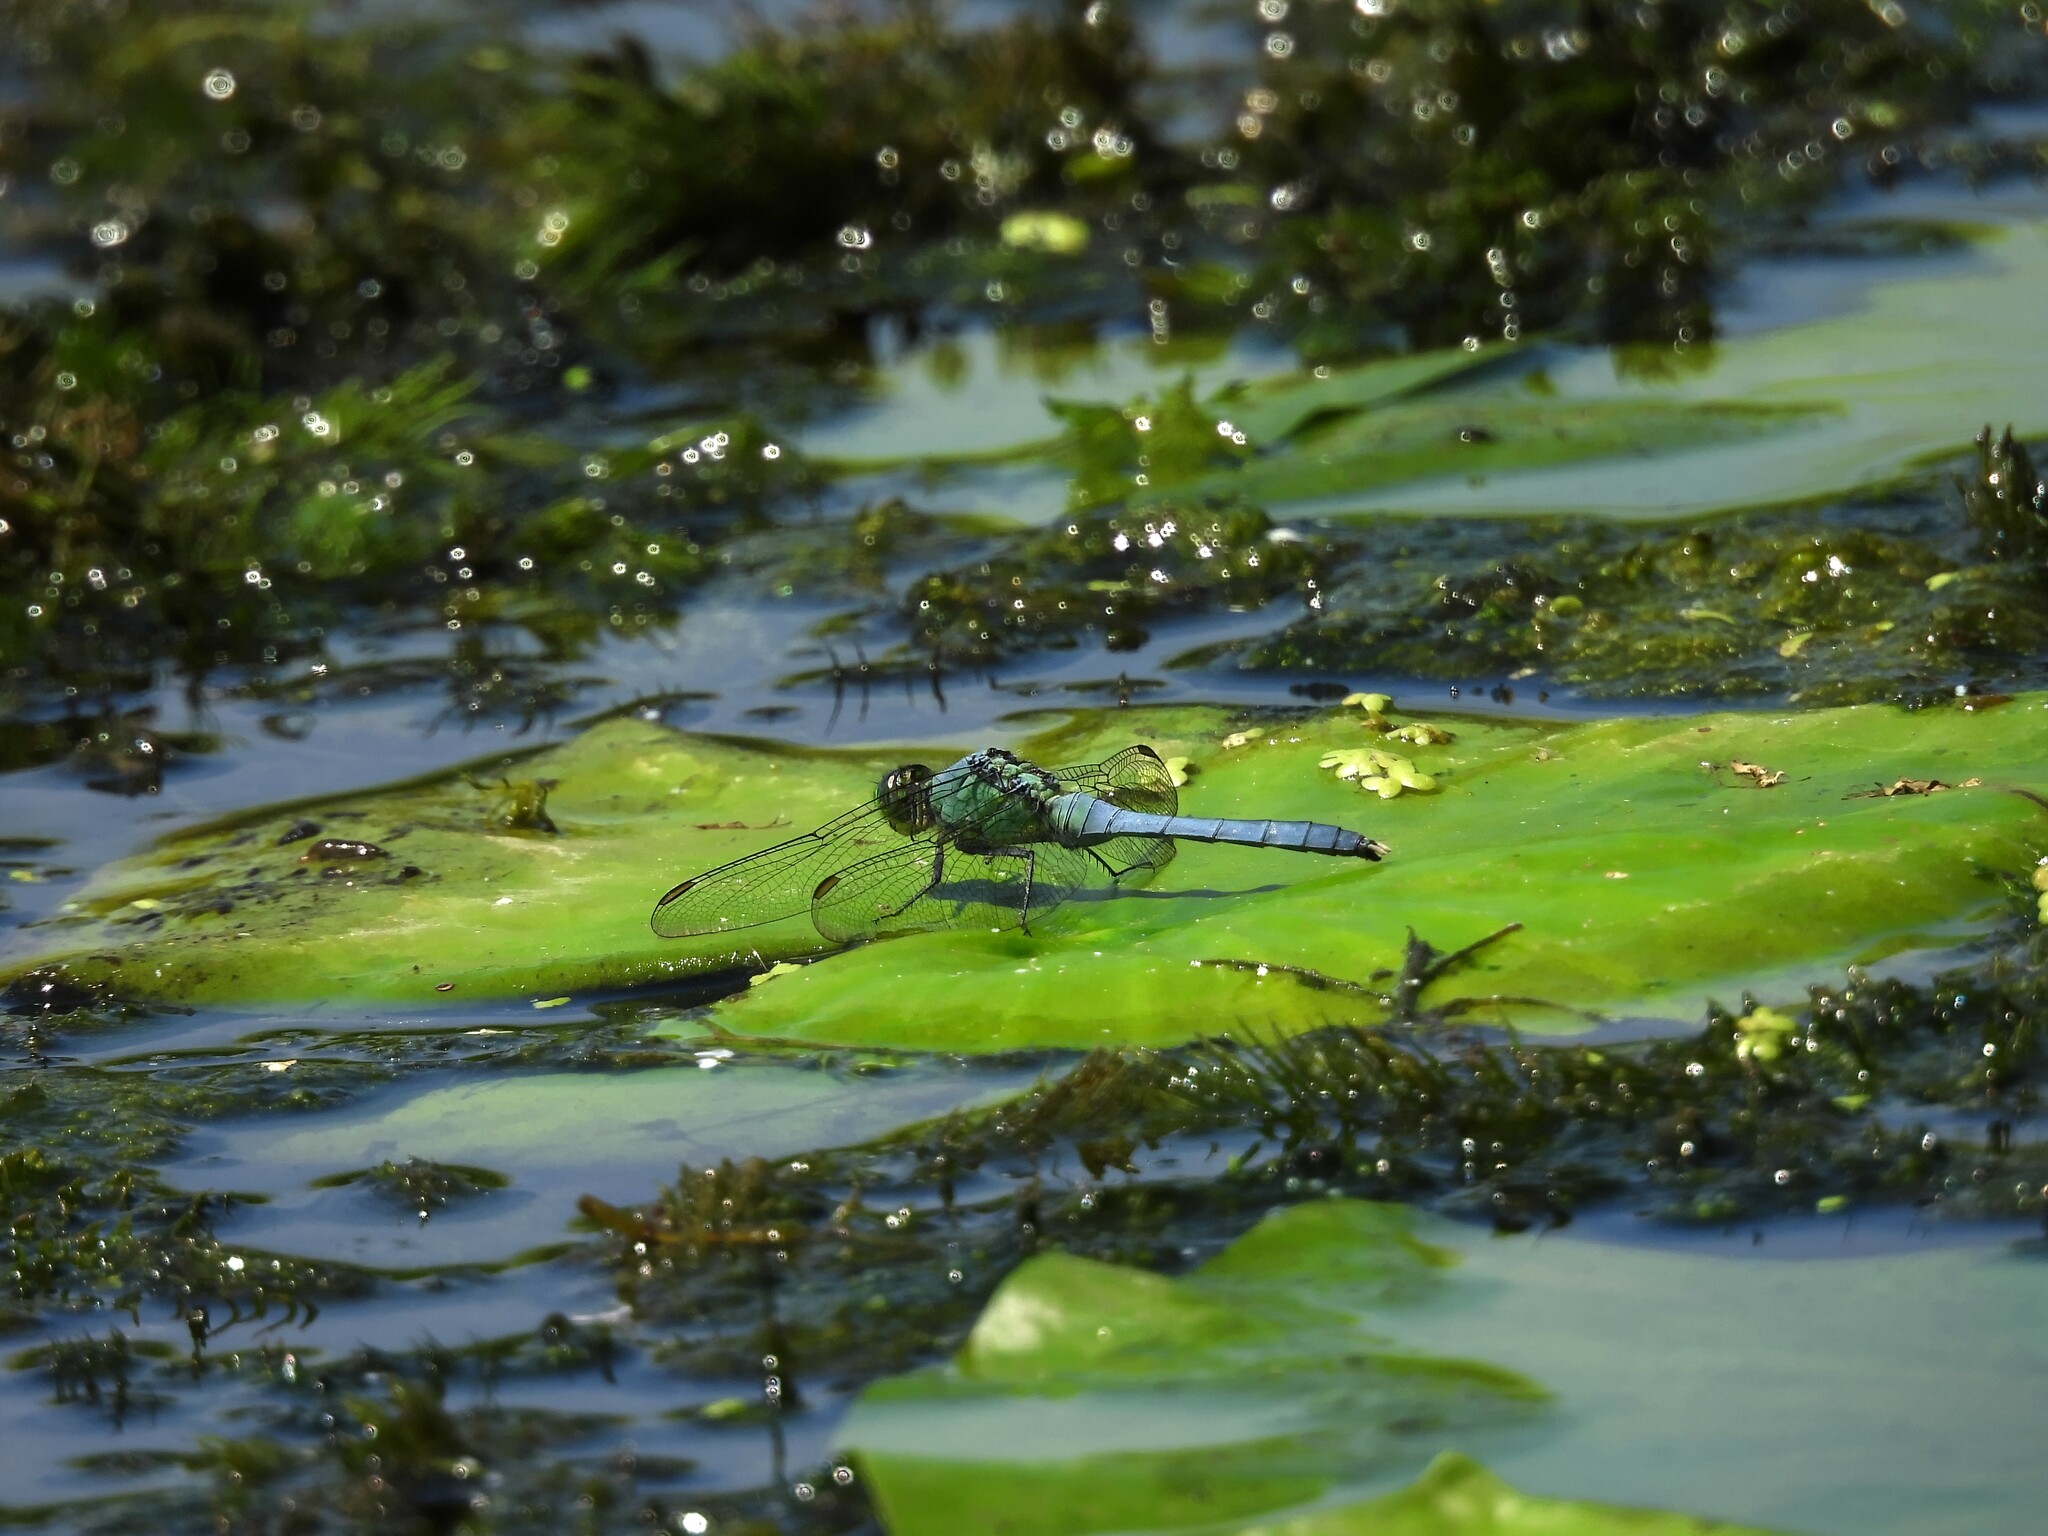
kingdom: Animalia
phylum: Arthropoda
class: Insecta
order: Odonata
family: Libellulidae
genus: Erythemis
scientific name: Erythemis simplicicollis
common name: Eastern pondhawk
